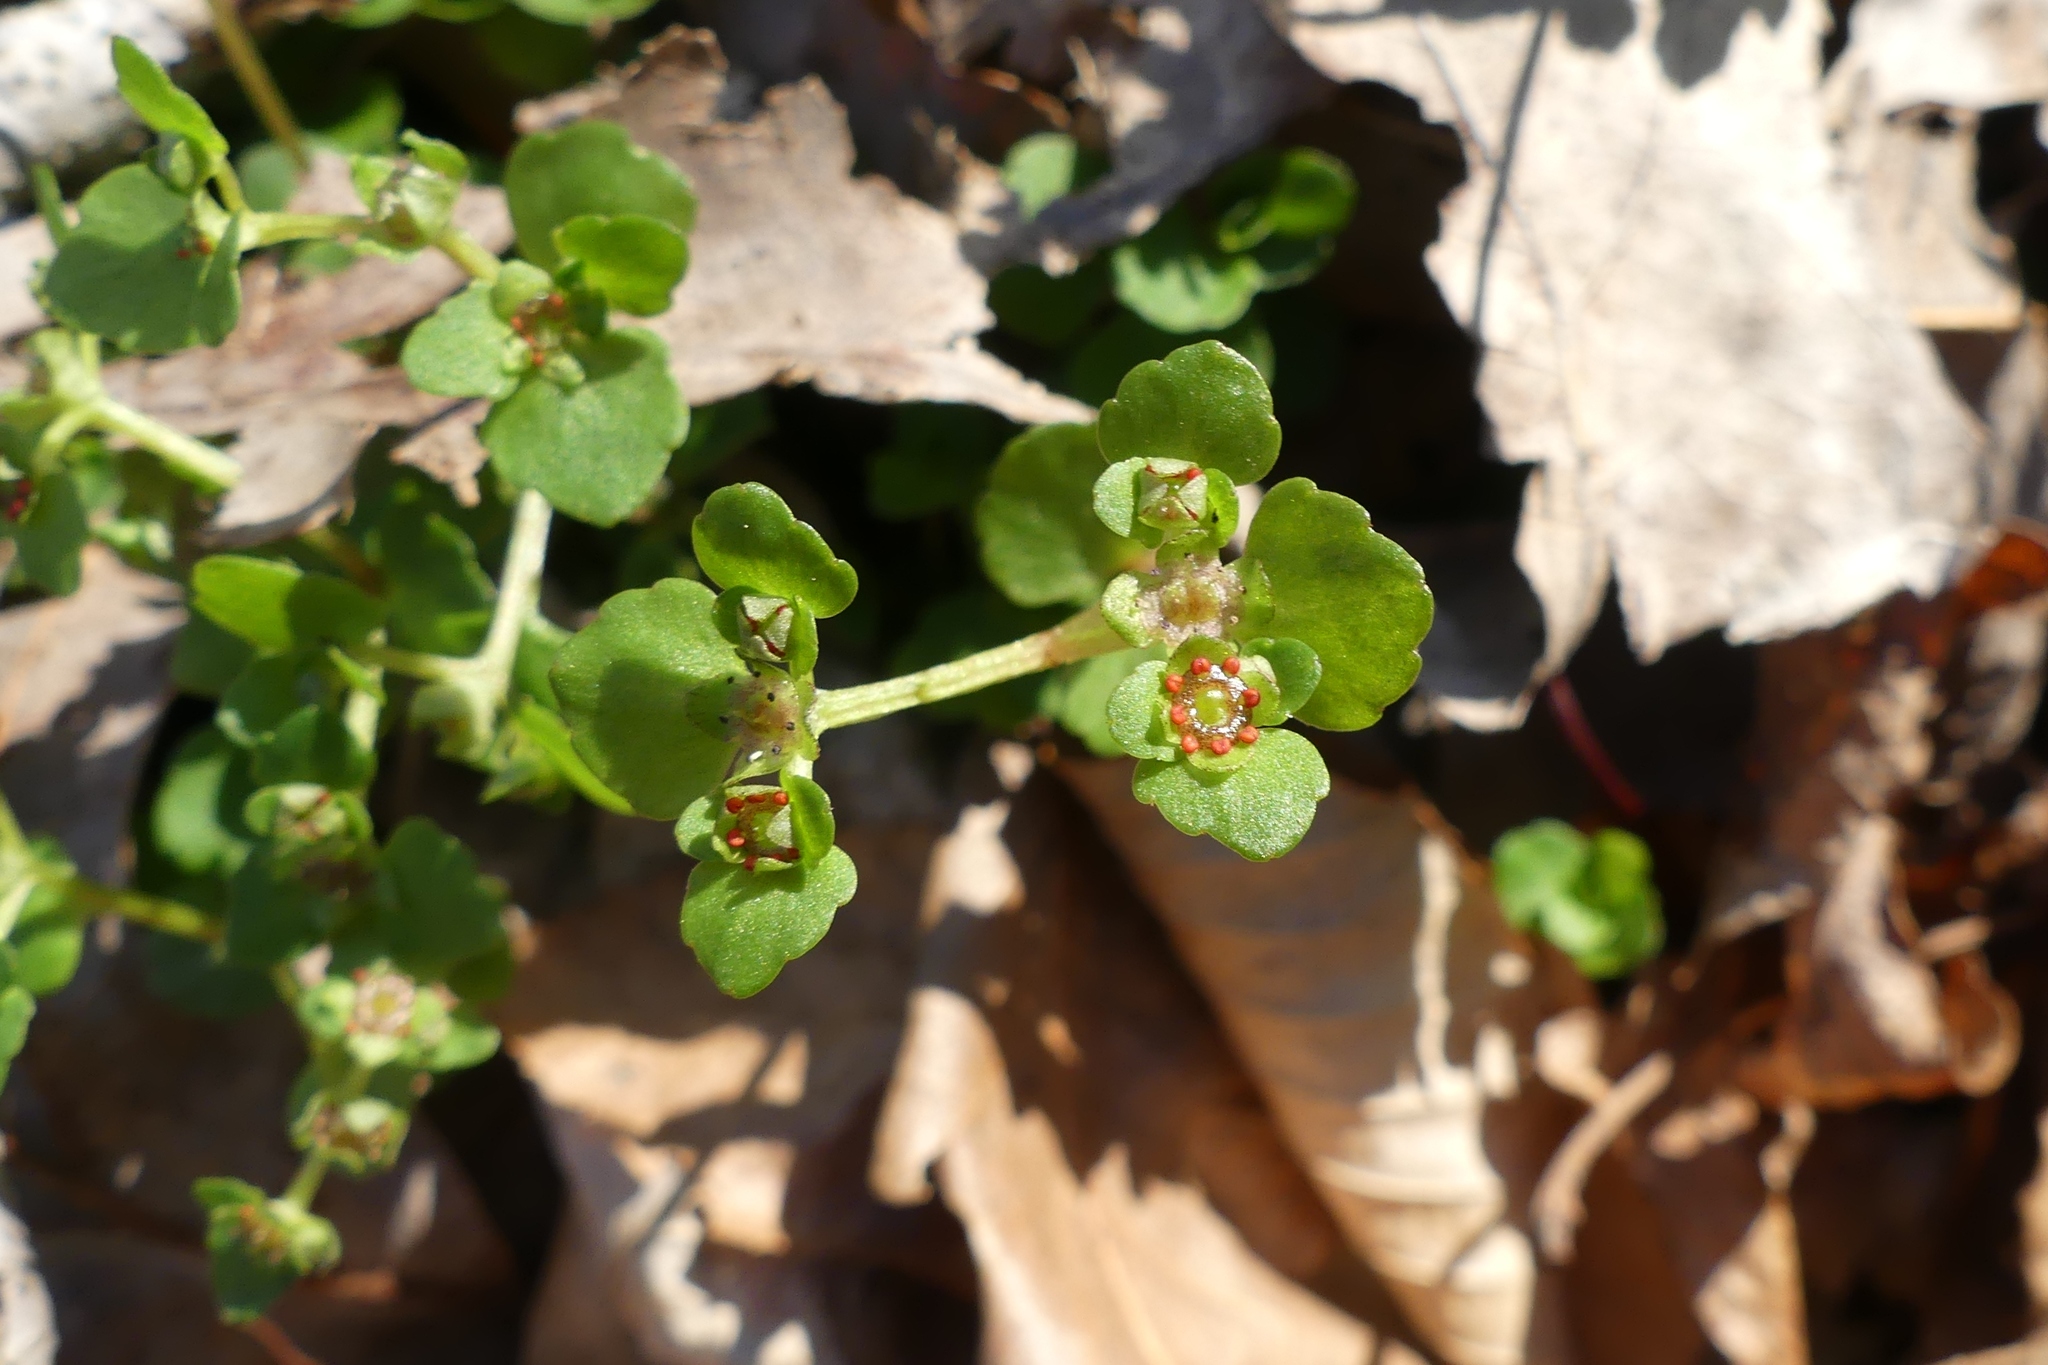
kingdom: Plantae
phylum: Tracheophyta
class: Magnoliopsida
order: Saxifragales
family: Saxifragaceae
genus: Chrysosplenium
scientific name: Chrysosplenium americanum
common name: American golden-saxifrage
